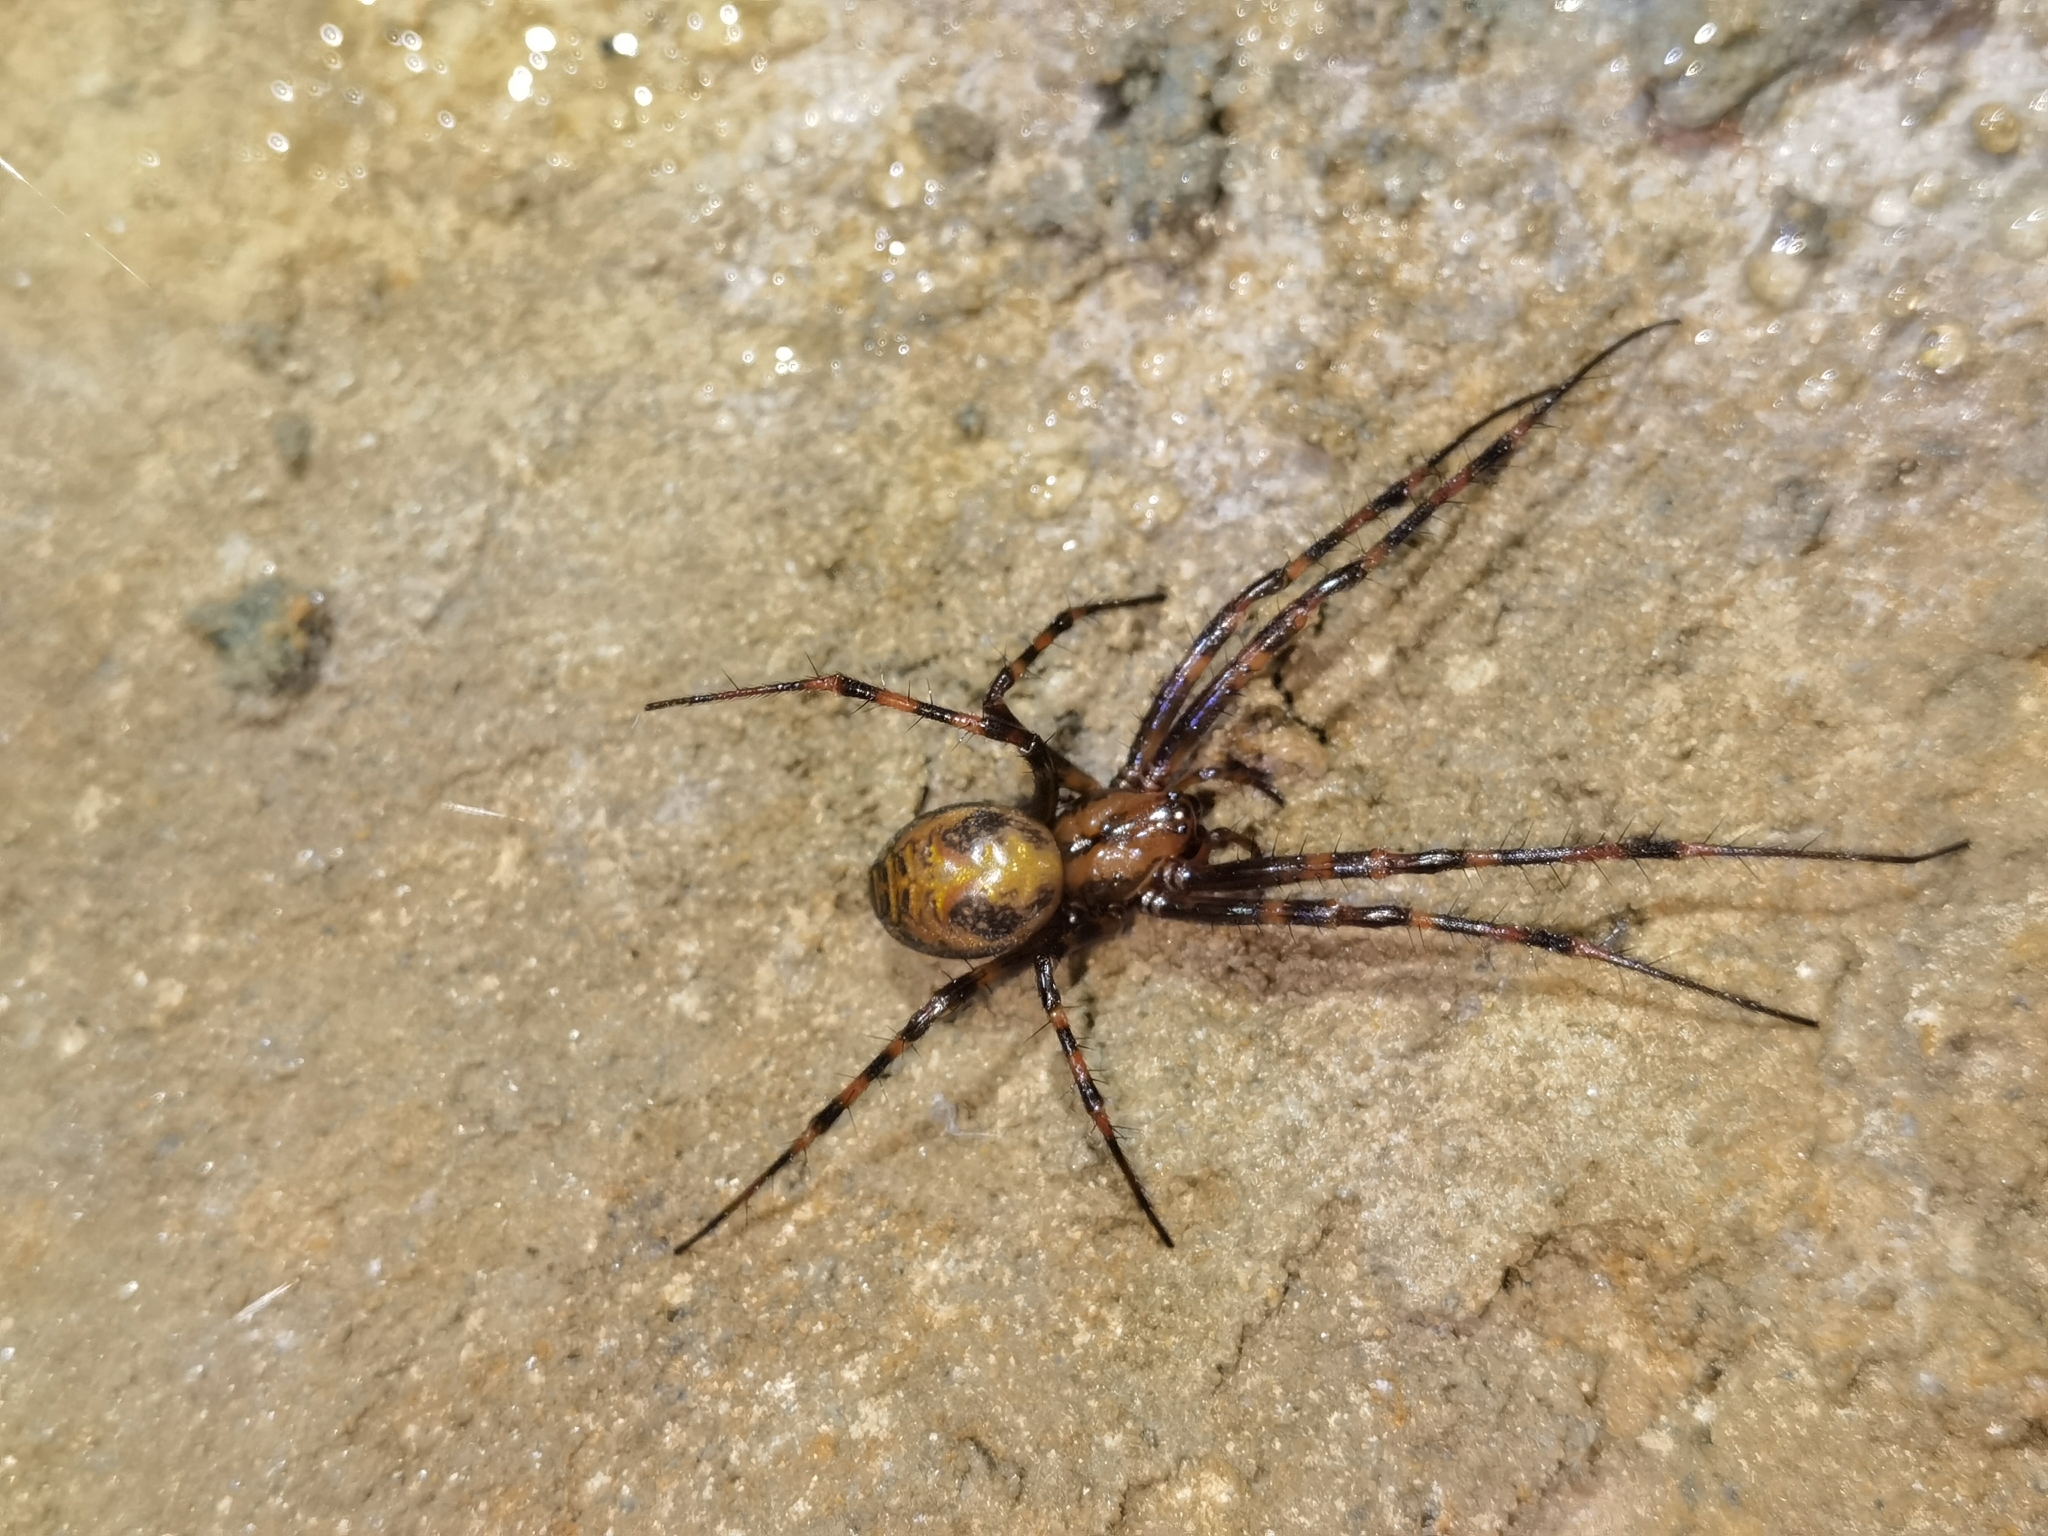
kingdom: Animalia
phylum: Arthropoda
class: Arachnida
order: Araneae
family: Tetragnathidae
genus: Meta
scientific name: Meta menardi
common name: Cave spider
